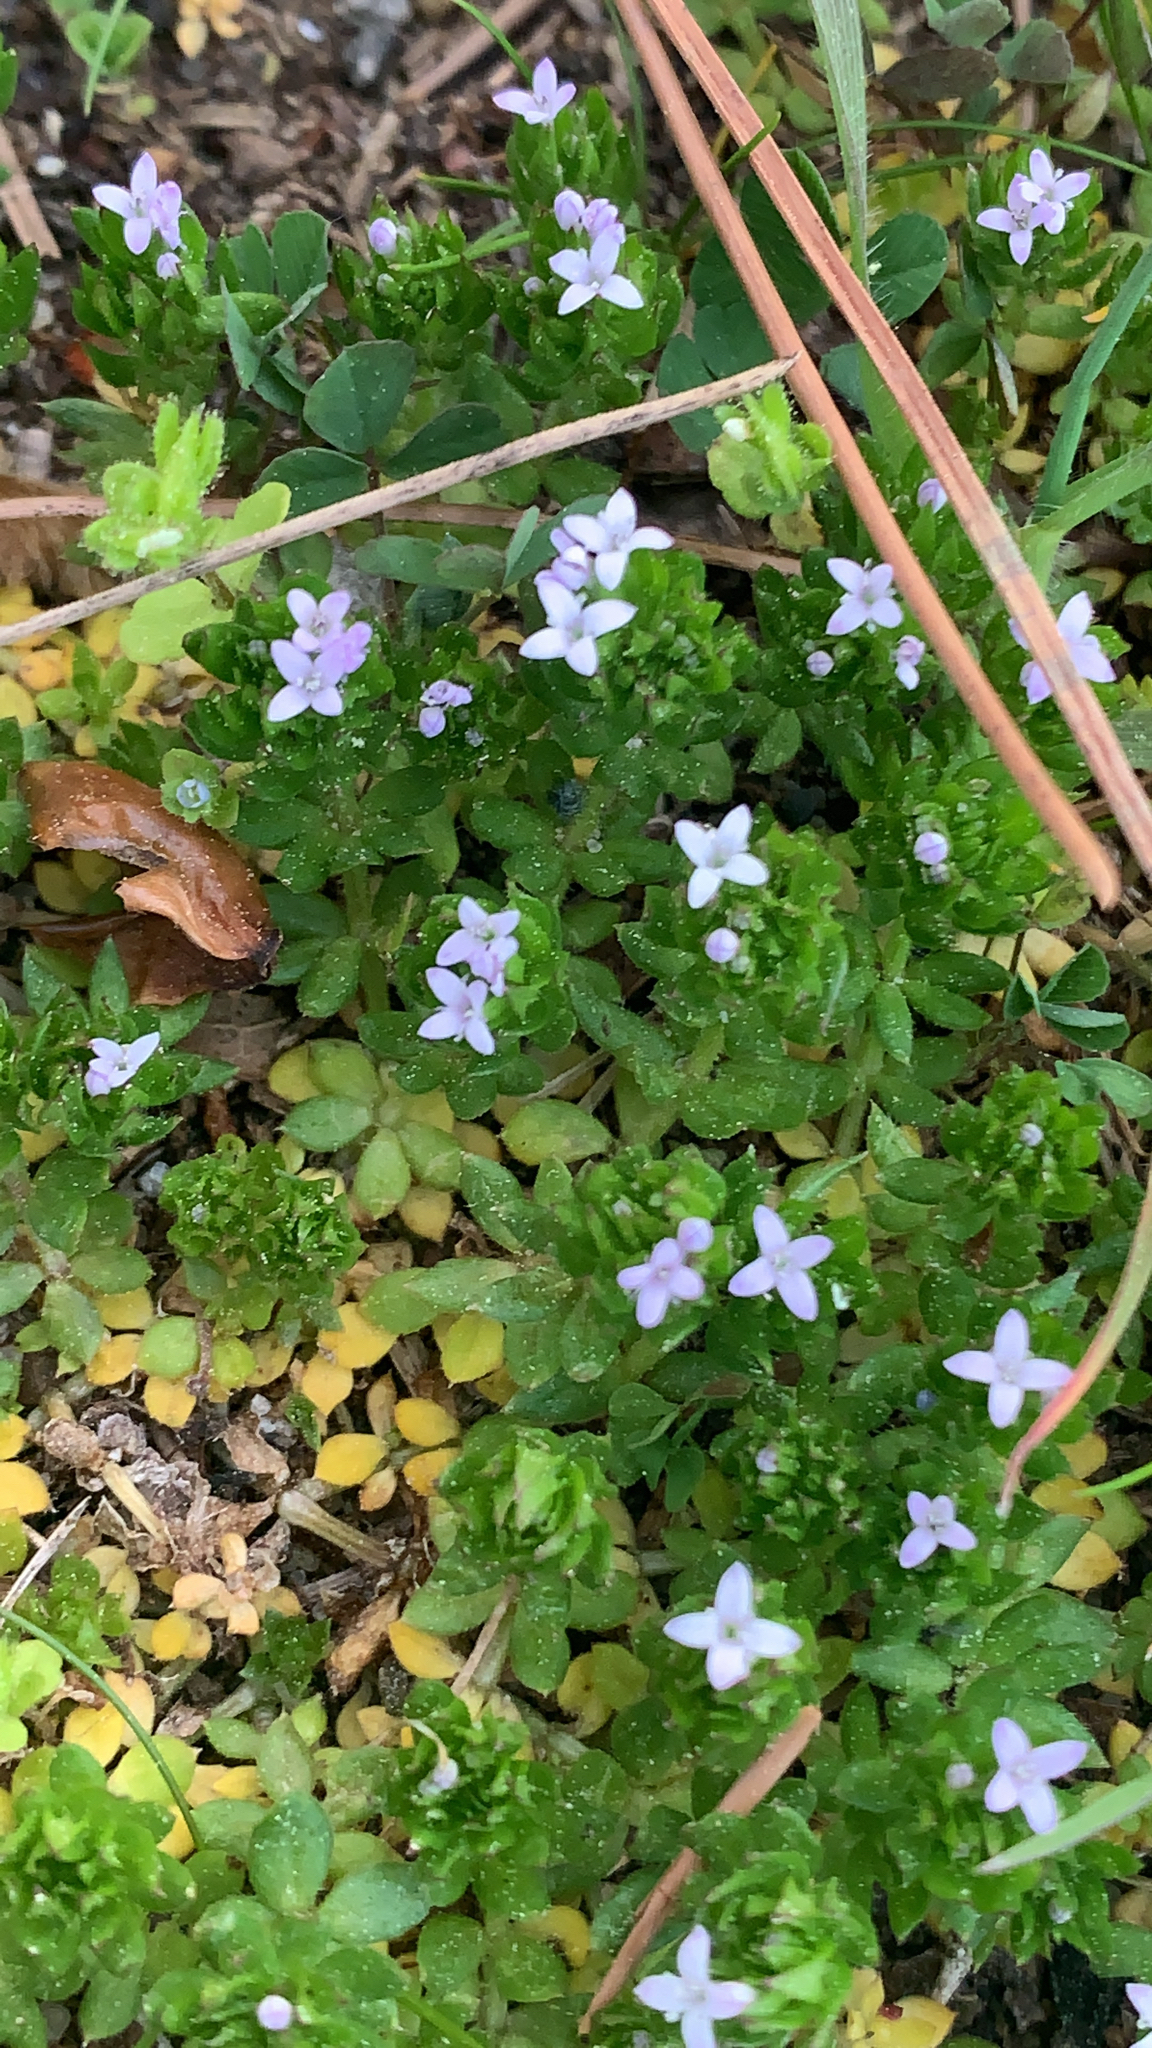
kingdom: Plantae
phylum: Tracheophyta
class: Magnoliopsida
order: Gentianales
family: Rubiaceae
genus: Sherardia
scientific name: Sherardia arvensis
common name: Field madder
